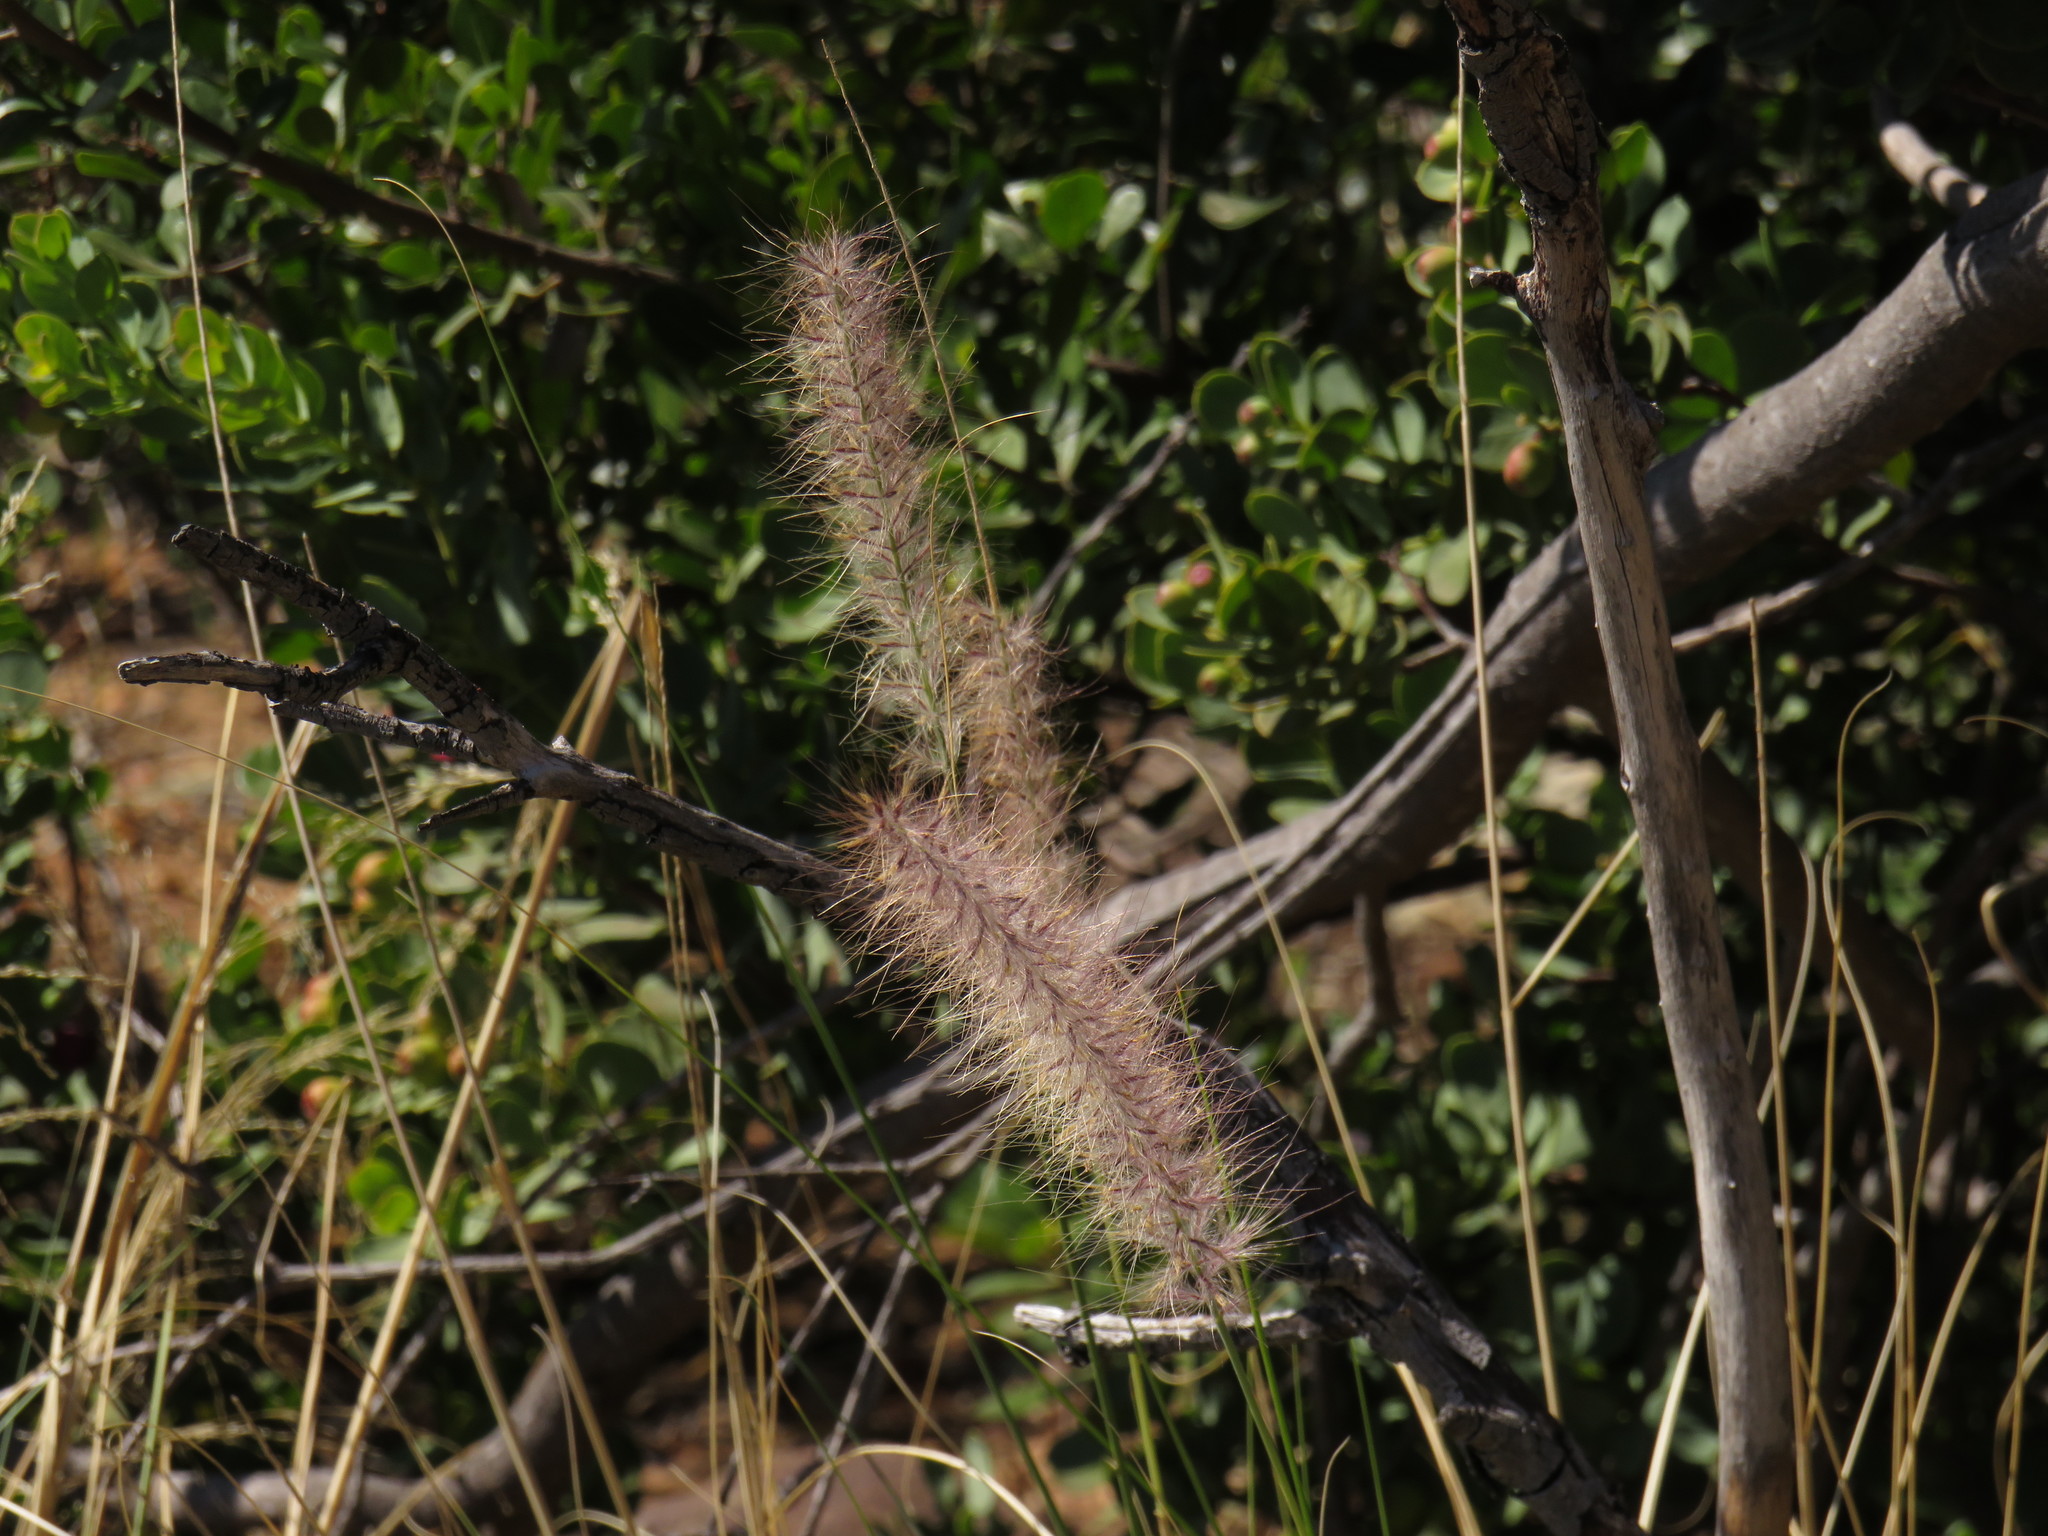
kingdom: Plantae
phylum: Tracheophyta
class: Liliopsida
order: Poales
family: Poaceae
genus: Cenchrus
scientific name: Cenchrus setaceus
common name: Crimson fountaingrass
